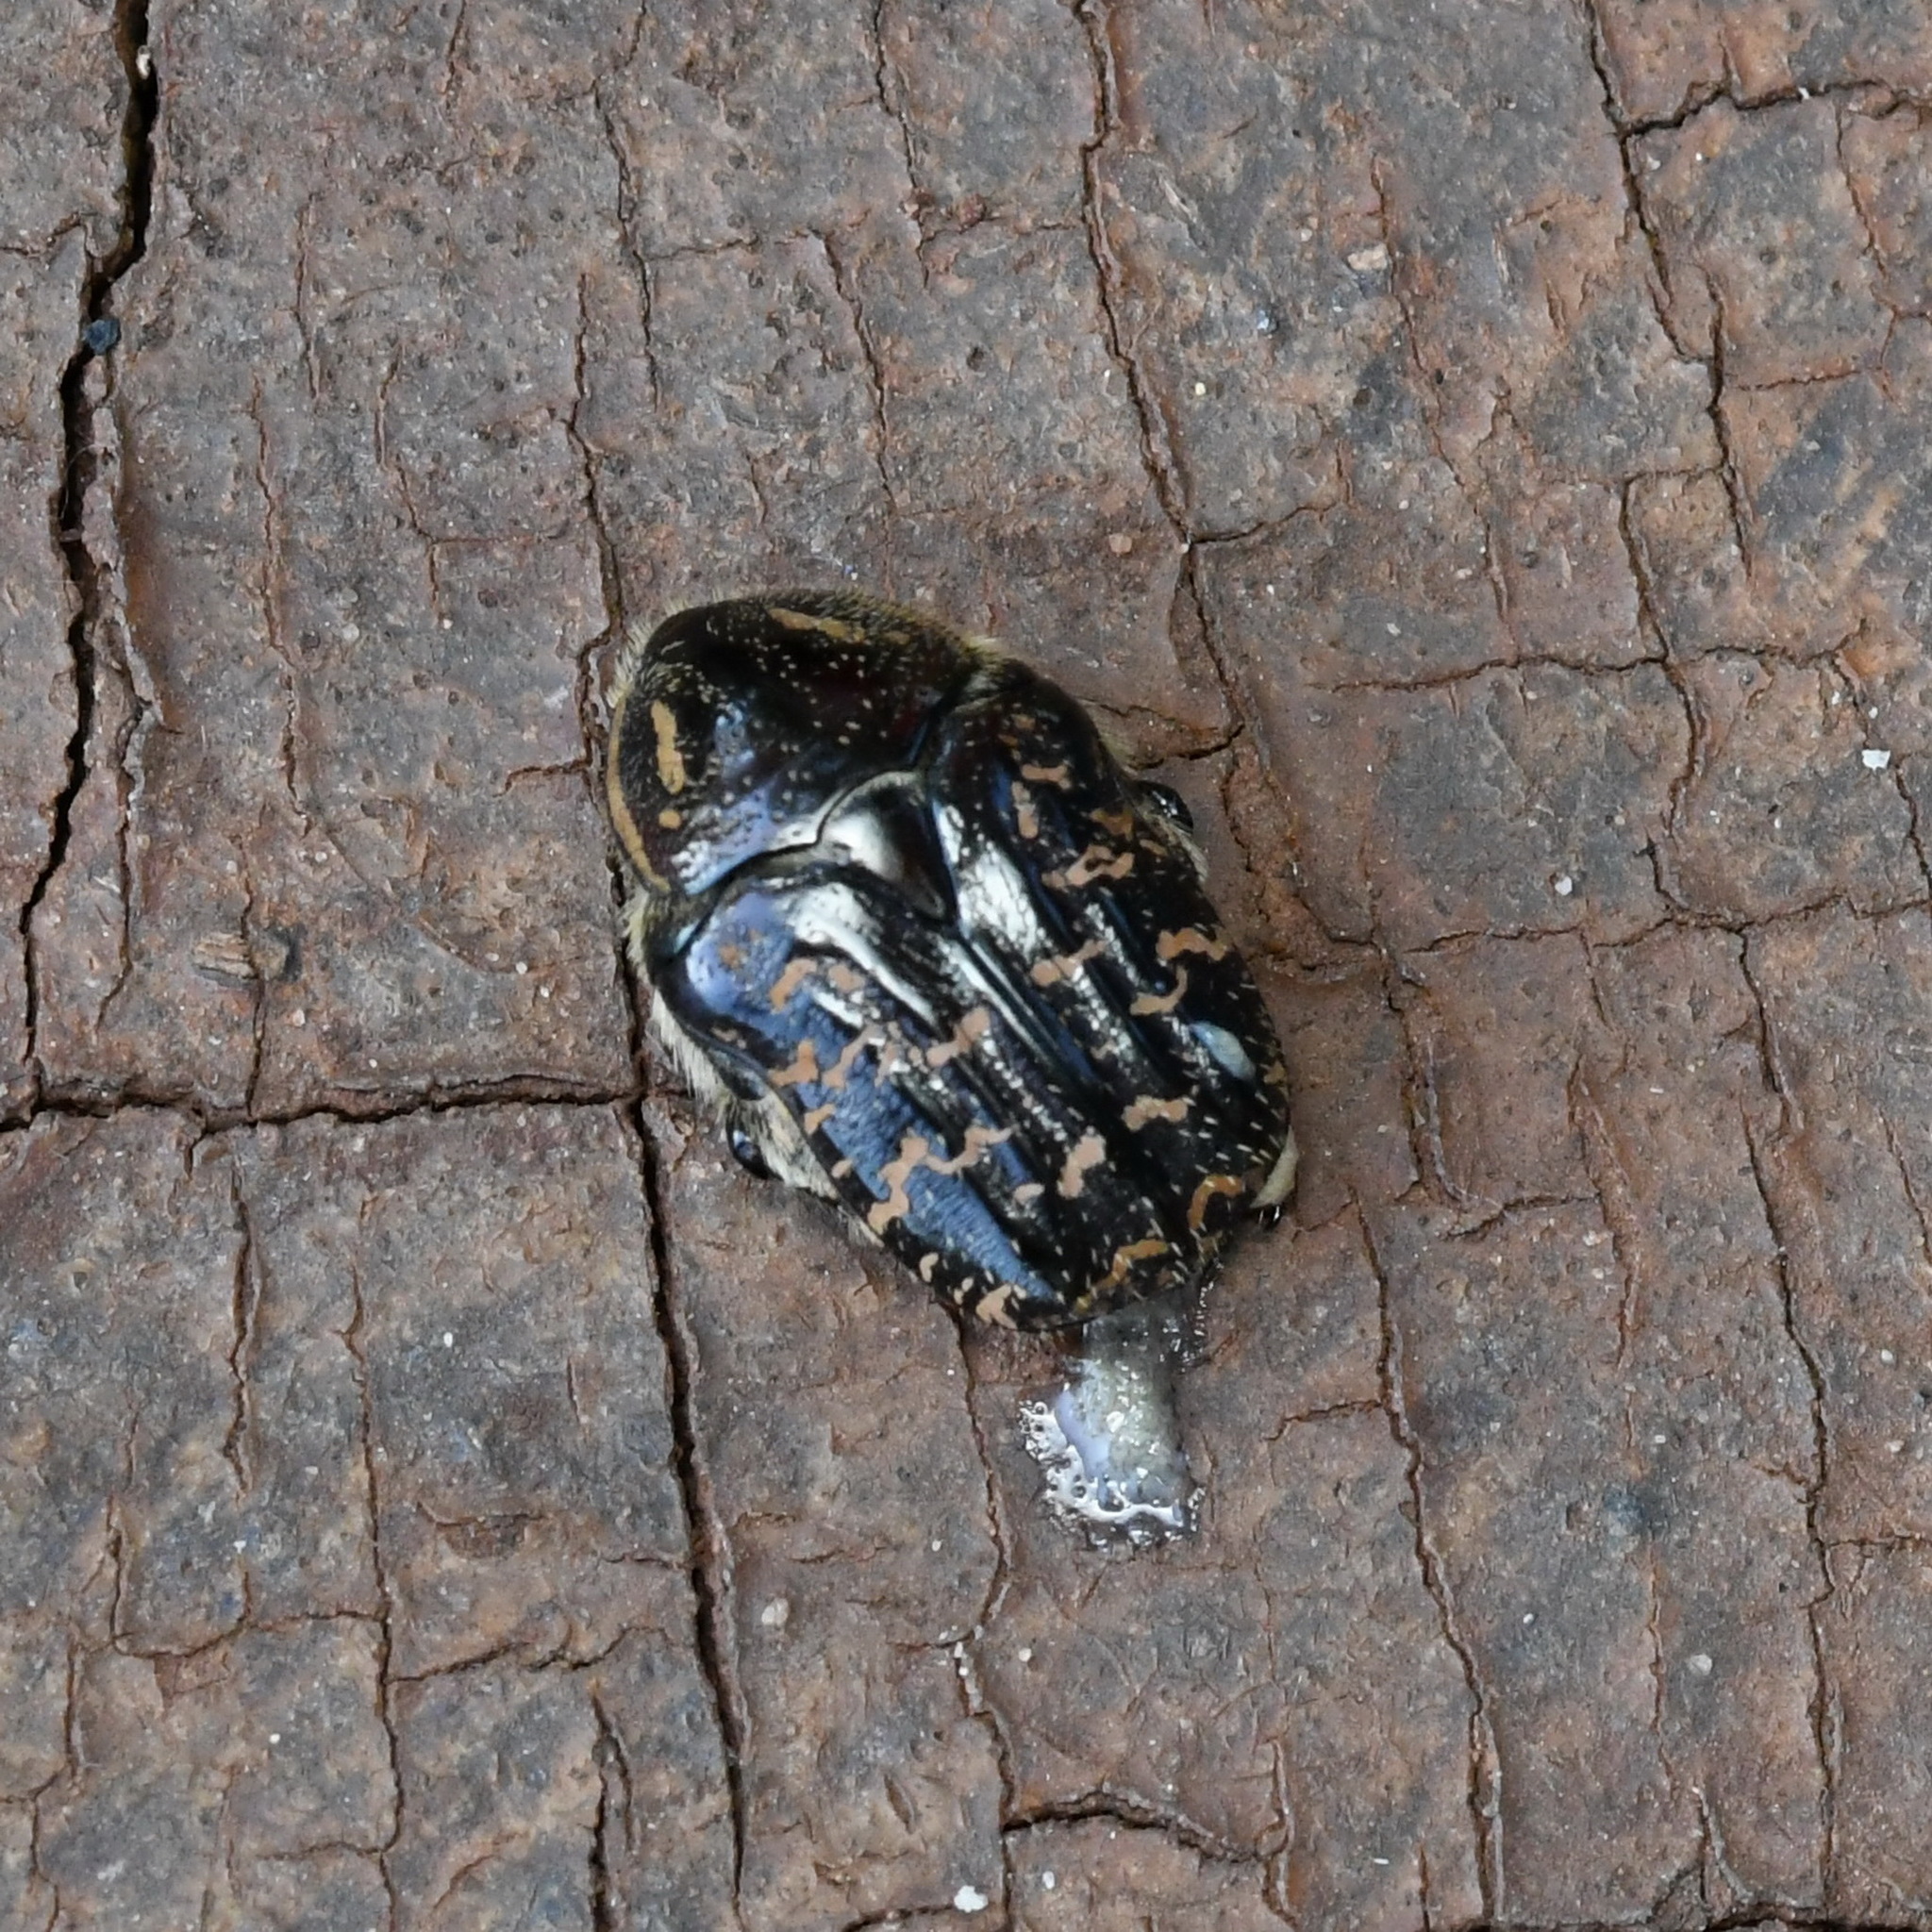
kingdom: Animalia
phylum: Arthropoda
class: Insecta
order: Coleoptera
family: Scarabaeidae
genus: Euphoria
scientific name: Euphoria lurida
